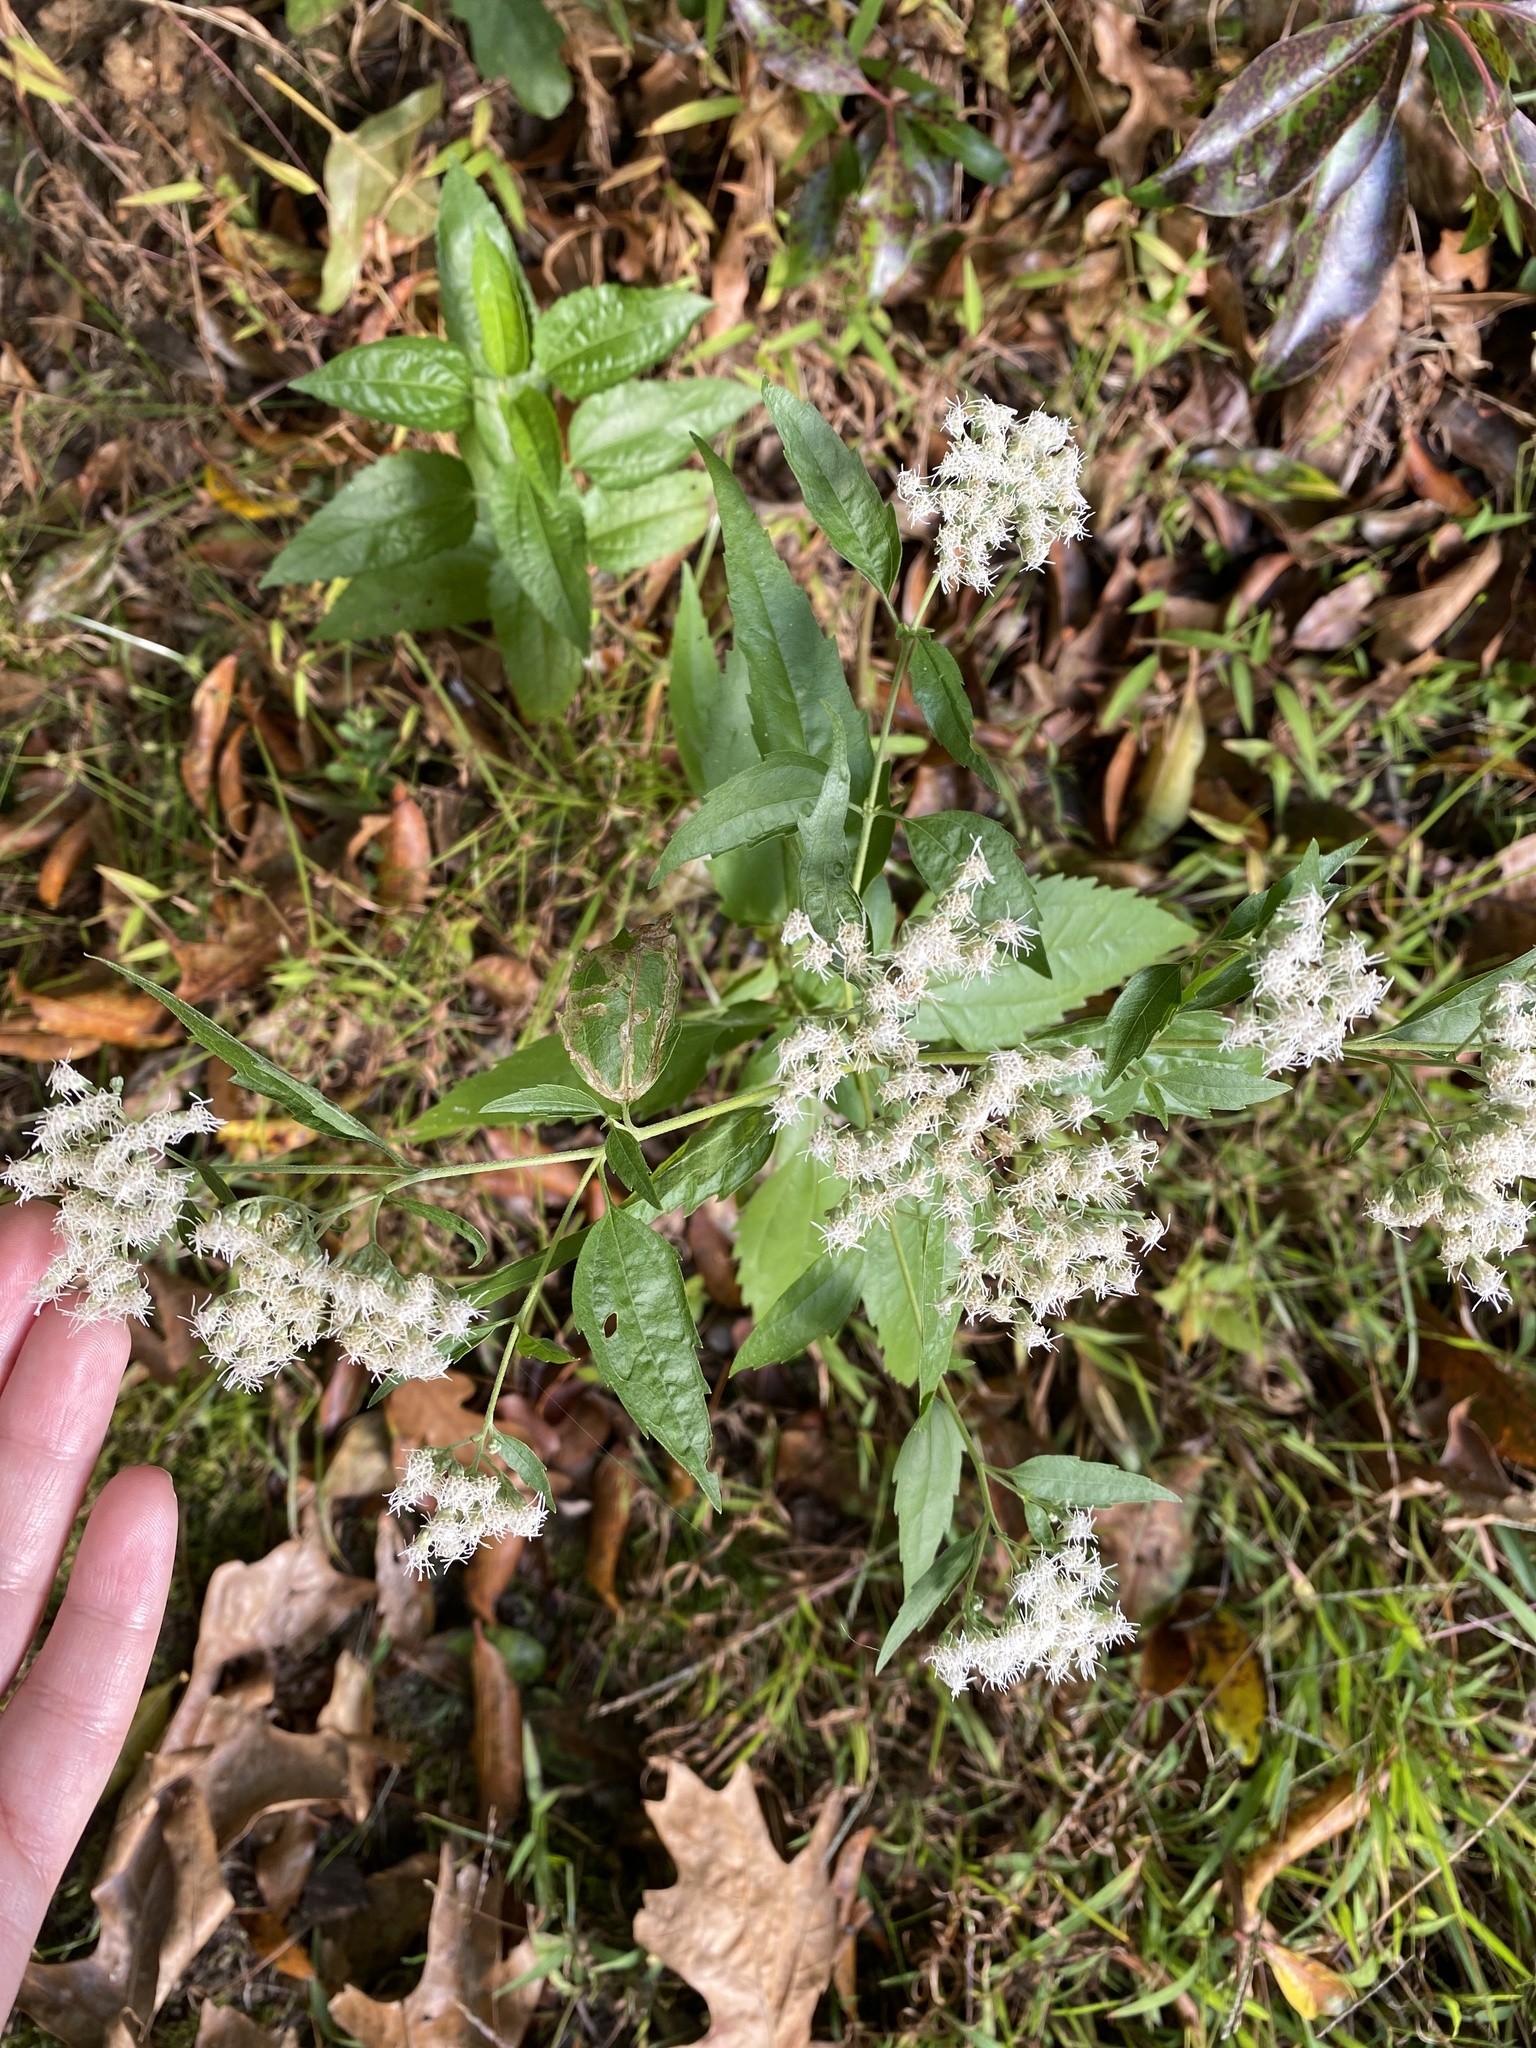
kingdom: Plantae
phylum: Tracheophyta
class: Magnoliopsida
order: Asterales
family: Asteraceae
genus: Eupatorium
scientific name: Eupatorium serotinum
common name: Late boneset
